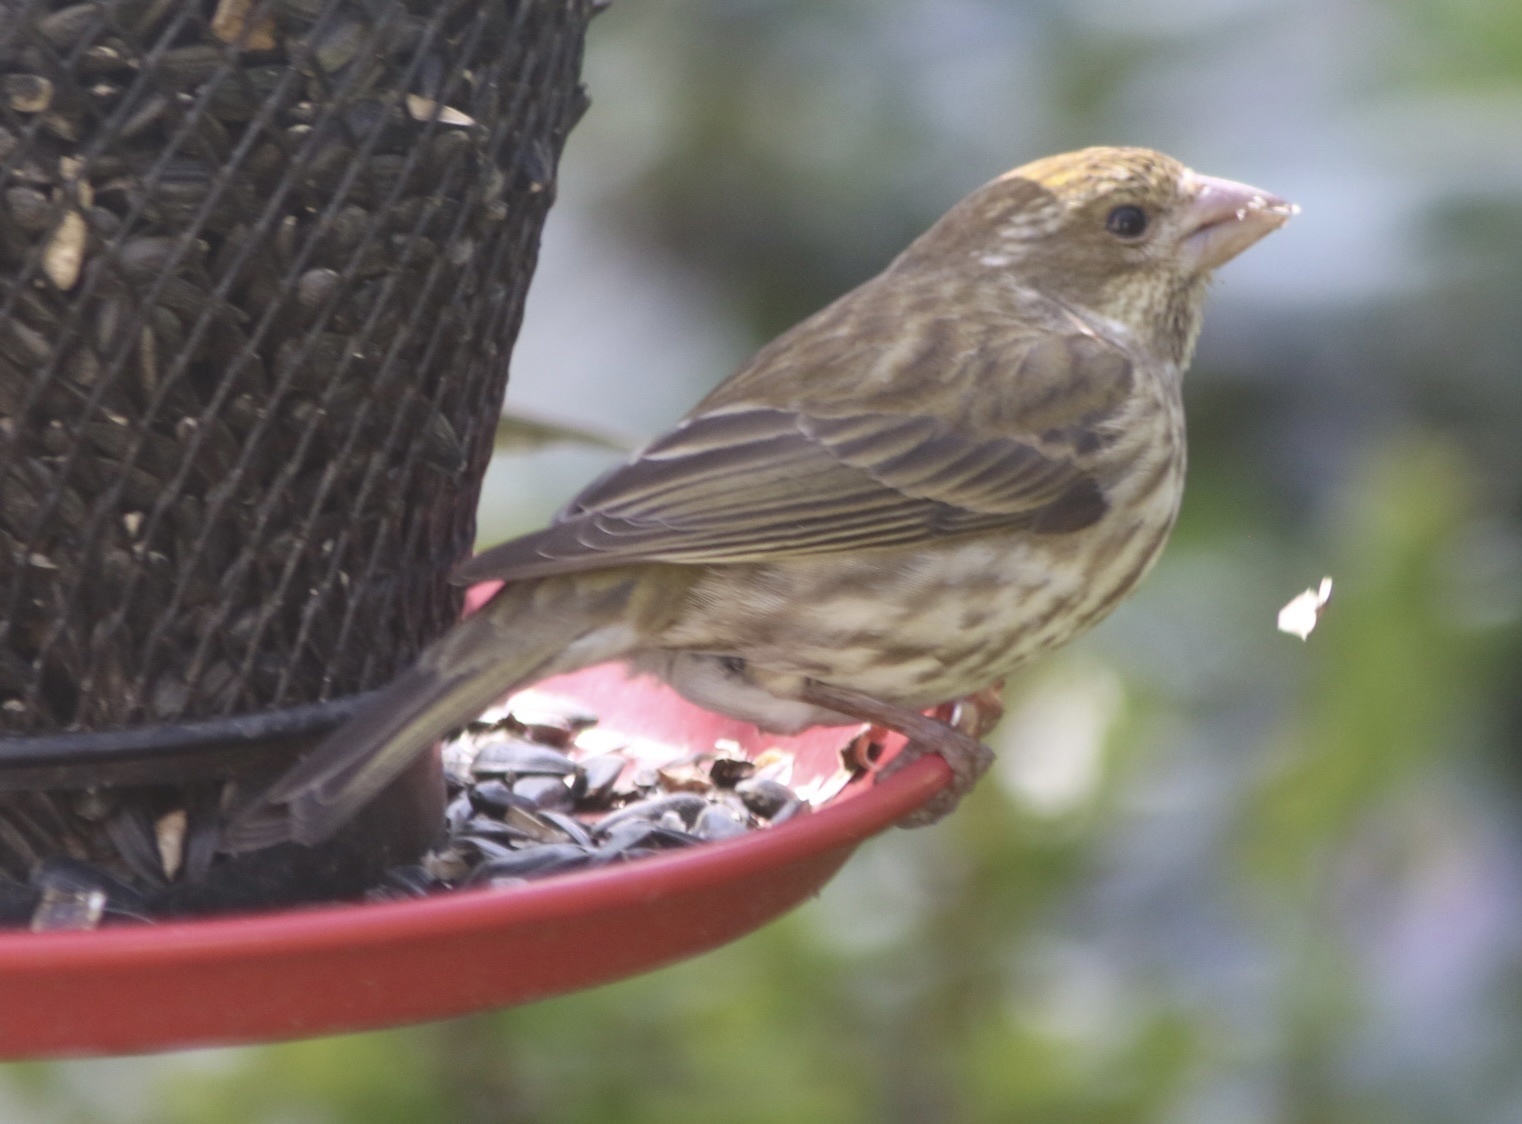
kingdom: Animalia
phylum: Chordata
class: Aves
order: Passeriformes
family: Fringillidae
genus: Haemorhous
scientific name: Haemorhous purpureus
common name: Purple finch
